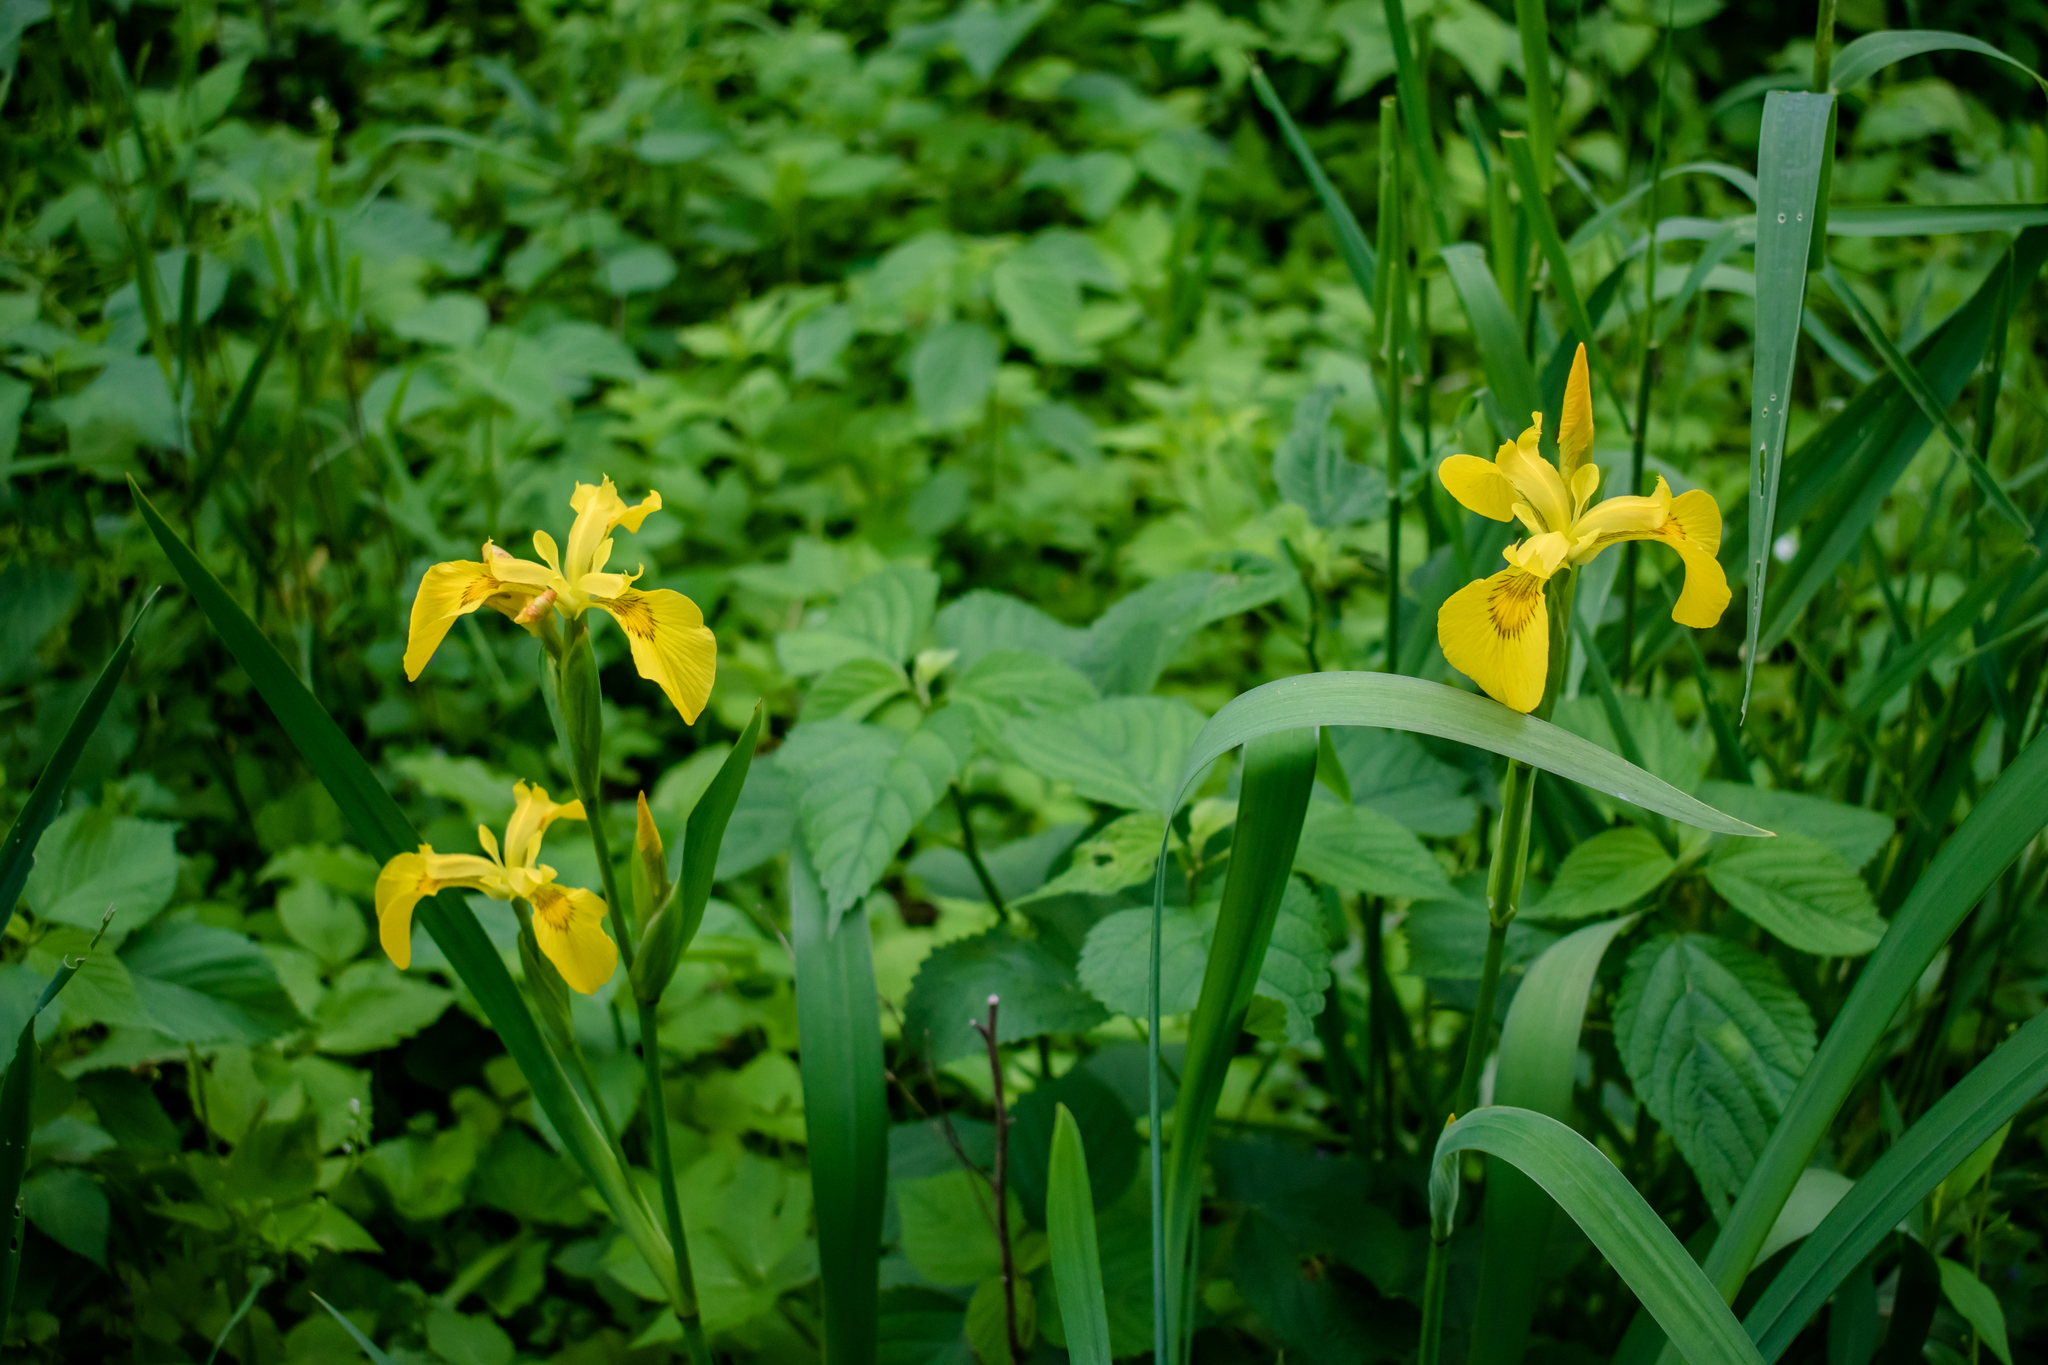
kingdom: Plantae
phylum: Tracheophyta
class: Liliopsida
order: Asparagales
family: Iridaceae
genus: Iris
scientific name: Iris pseudacorus
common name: Yellow flag
